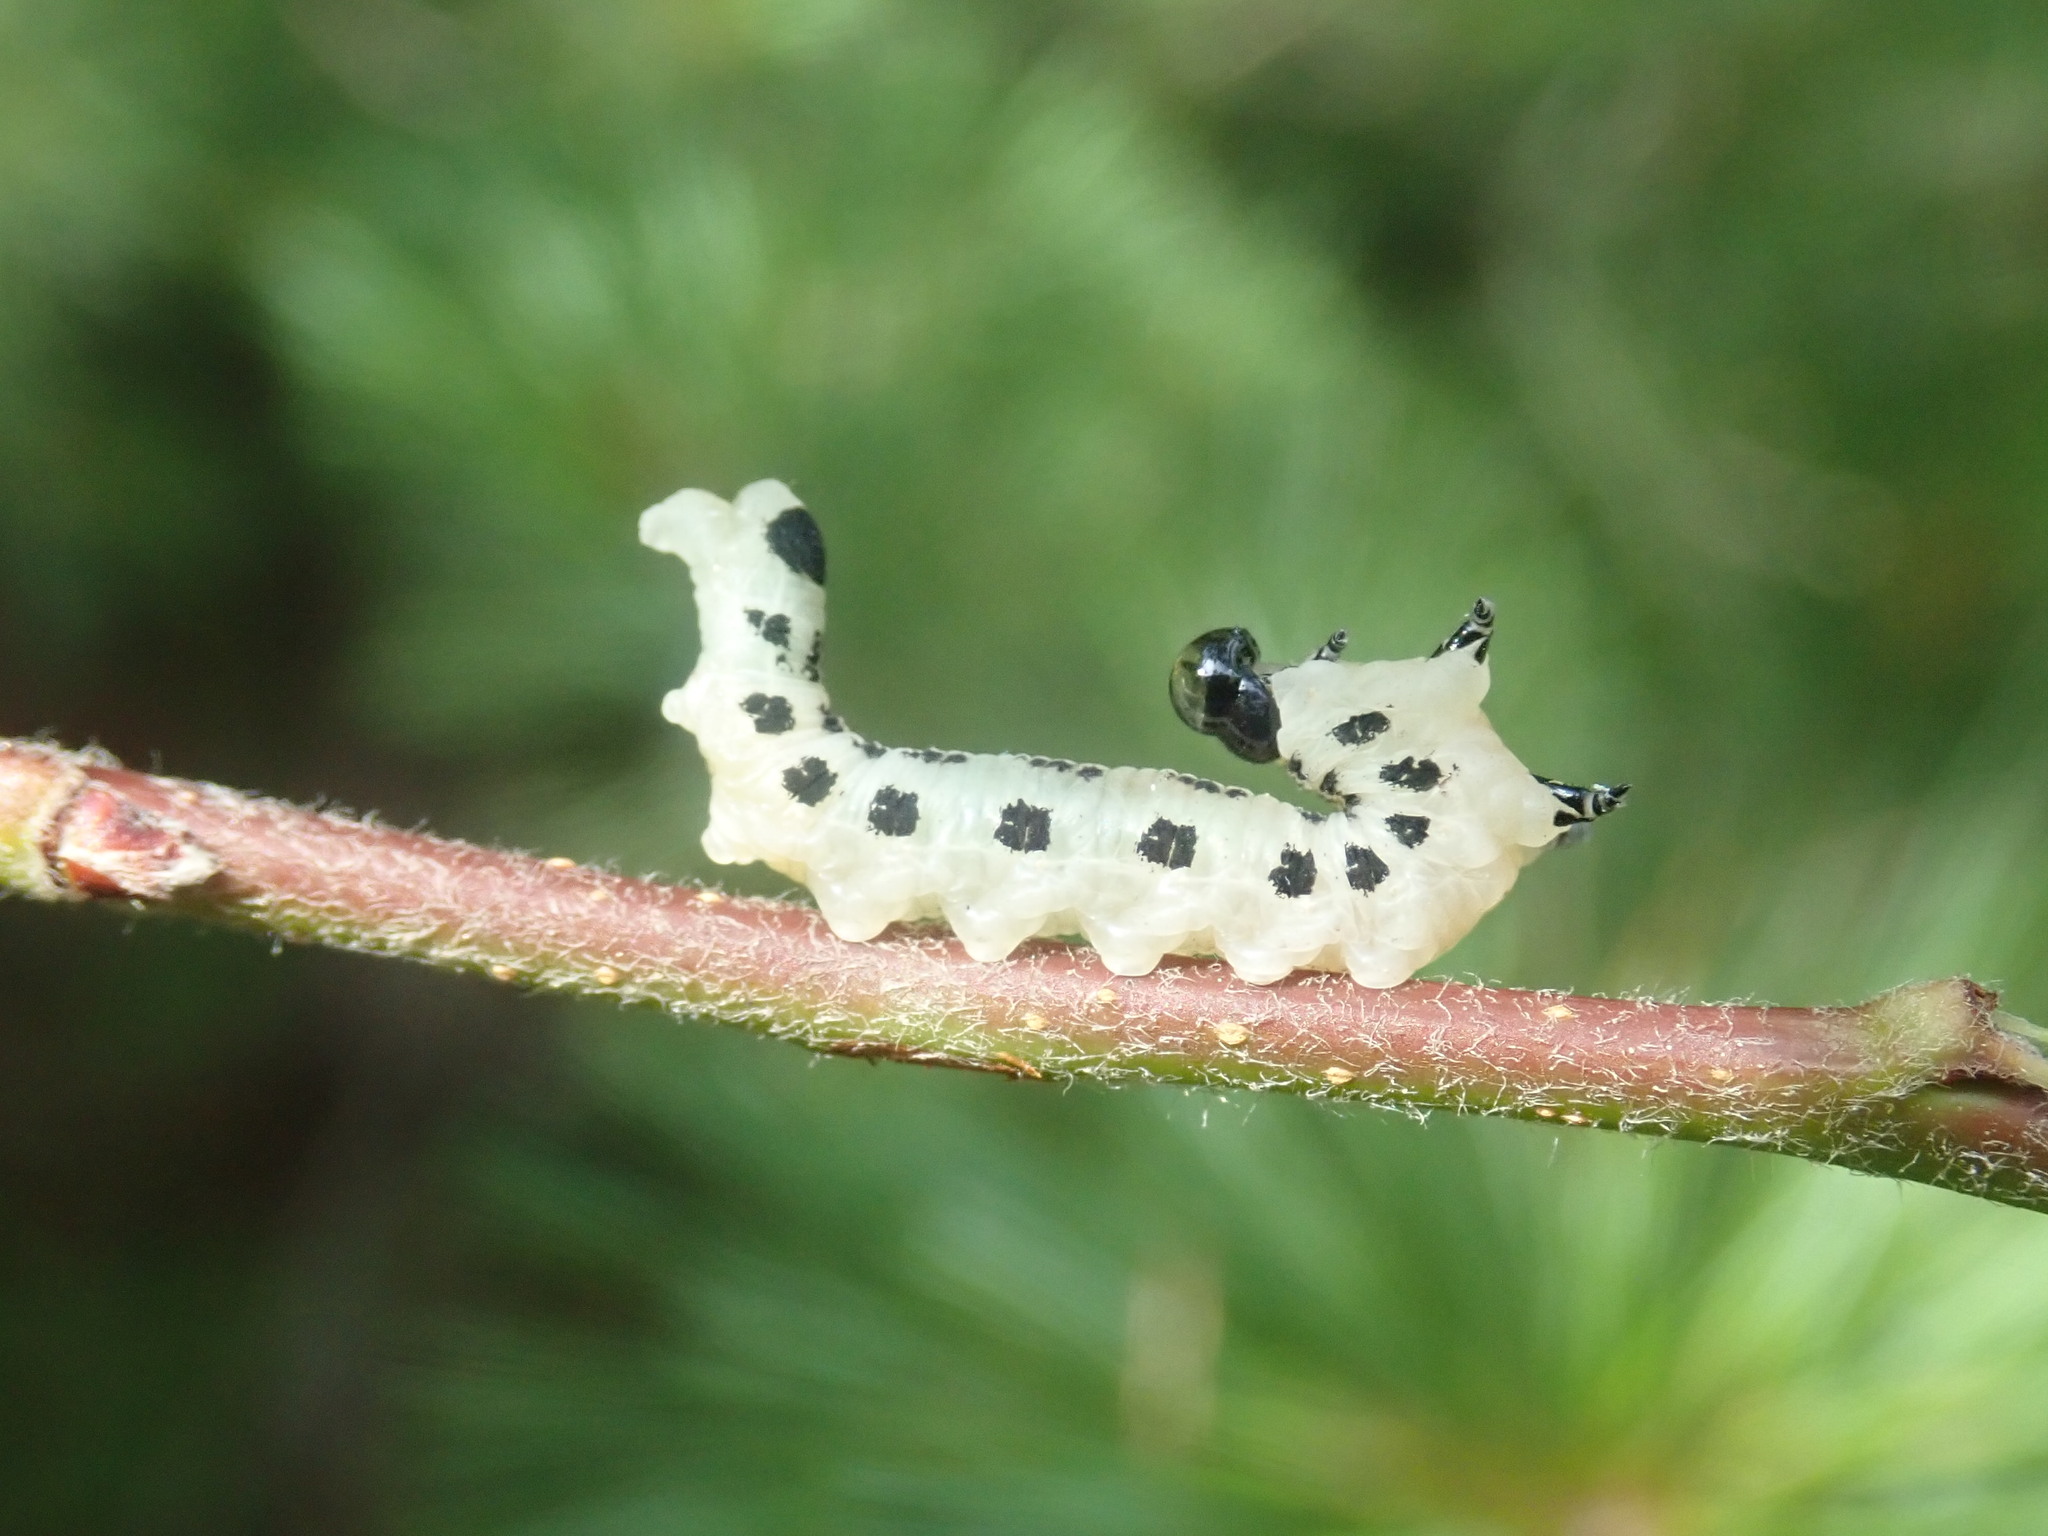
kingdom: Animalia
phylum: Arthropoda
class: Insecta
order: Hymenoptera
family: Diprionidae
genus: Neodiprion
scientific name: Neodiprion pinetum
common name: White pine sawfly
